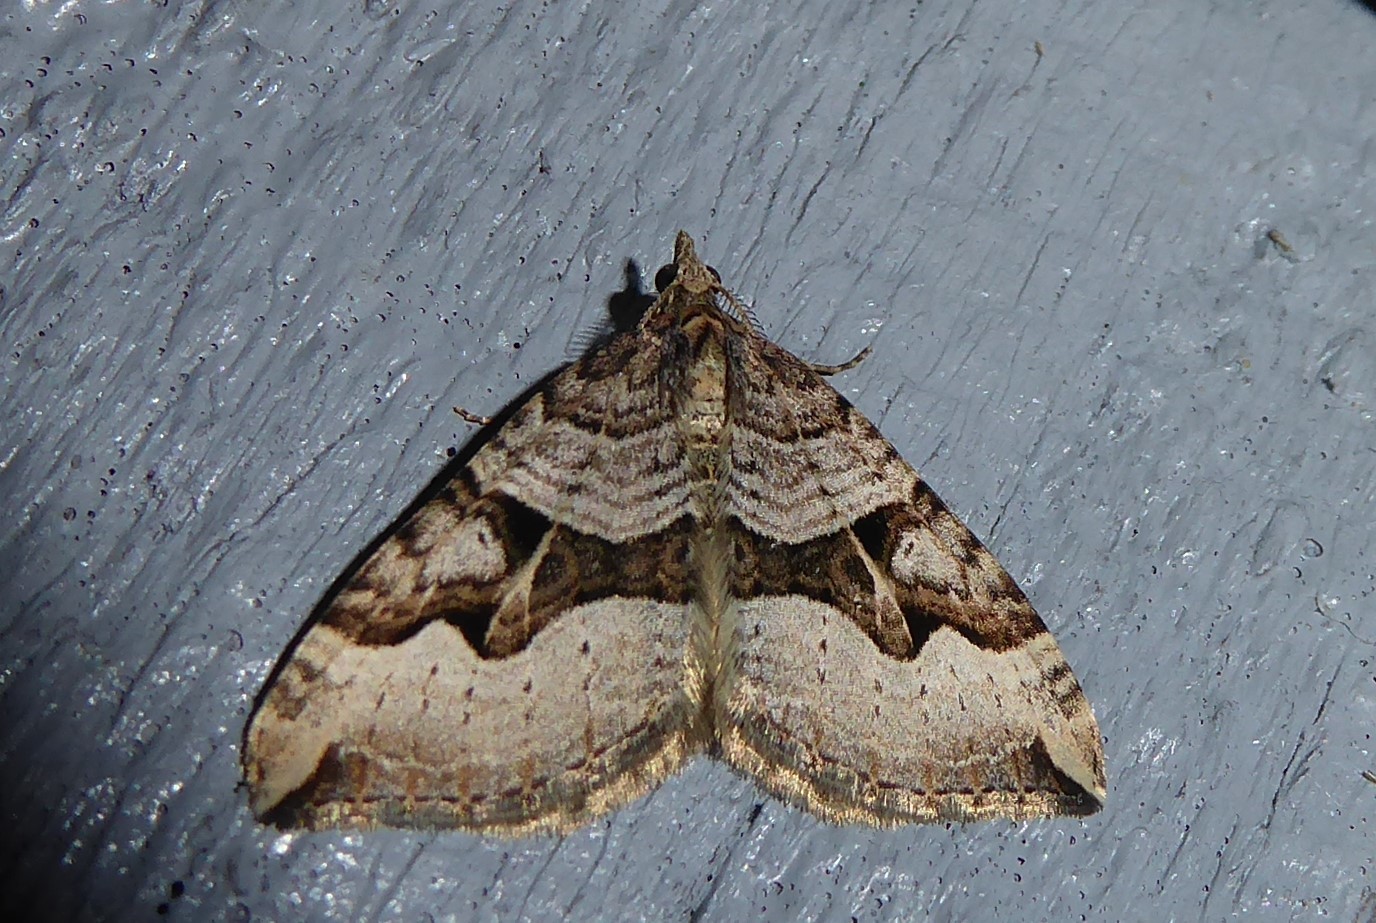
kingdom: Animalia
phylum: Arthropoda
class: Insecta
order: Lepidoptera
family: Geometridae
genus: Xanthorhoe
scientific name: Xanthorhoe semifissata
